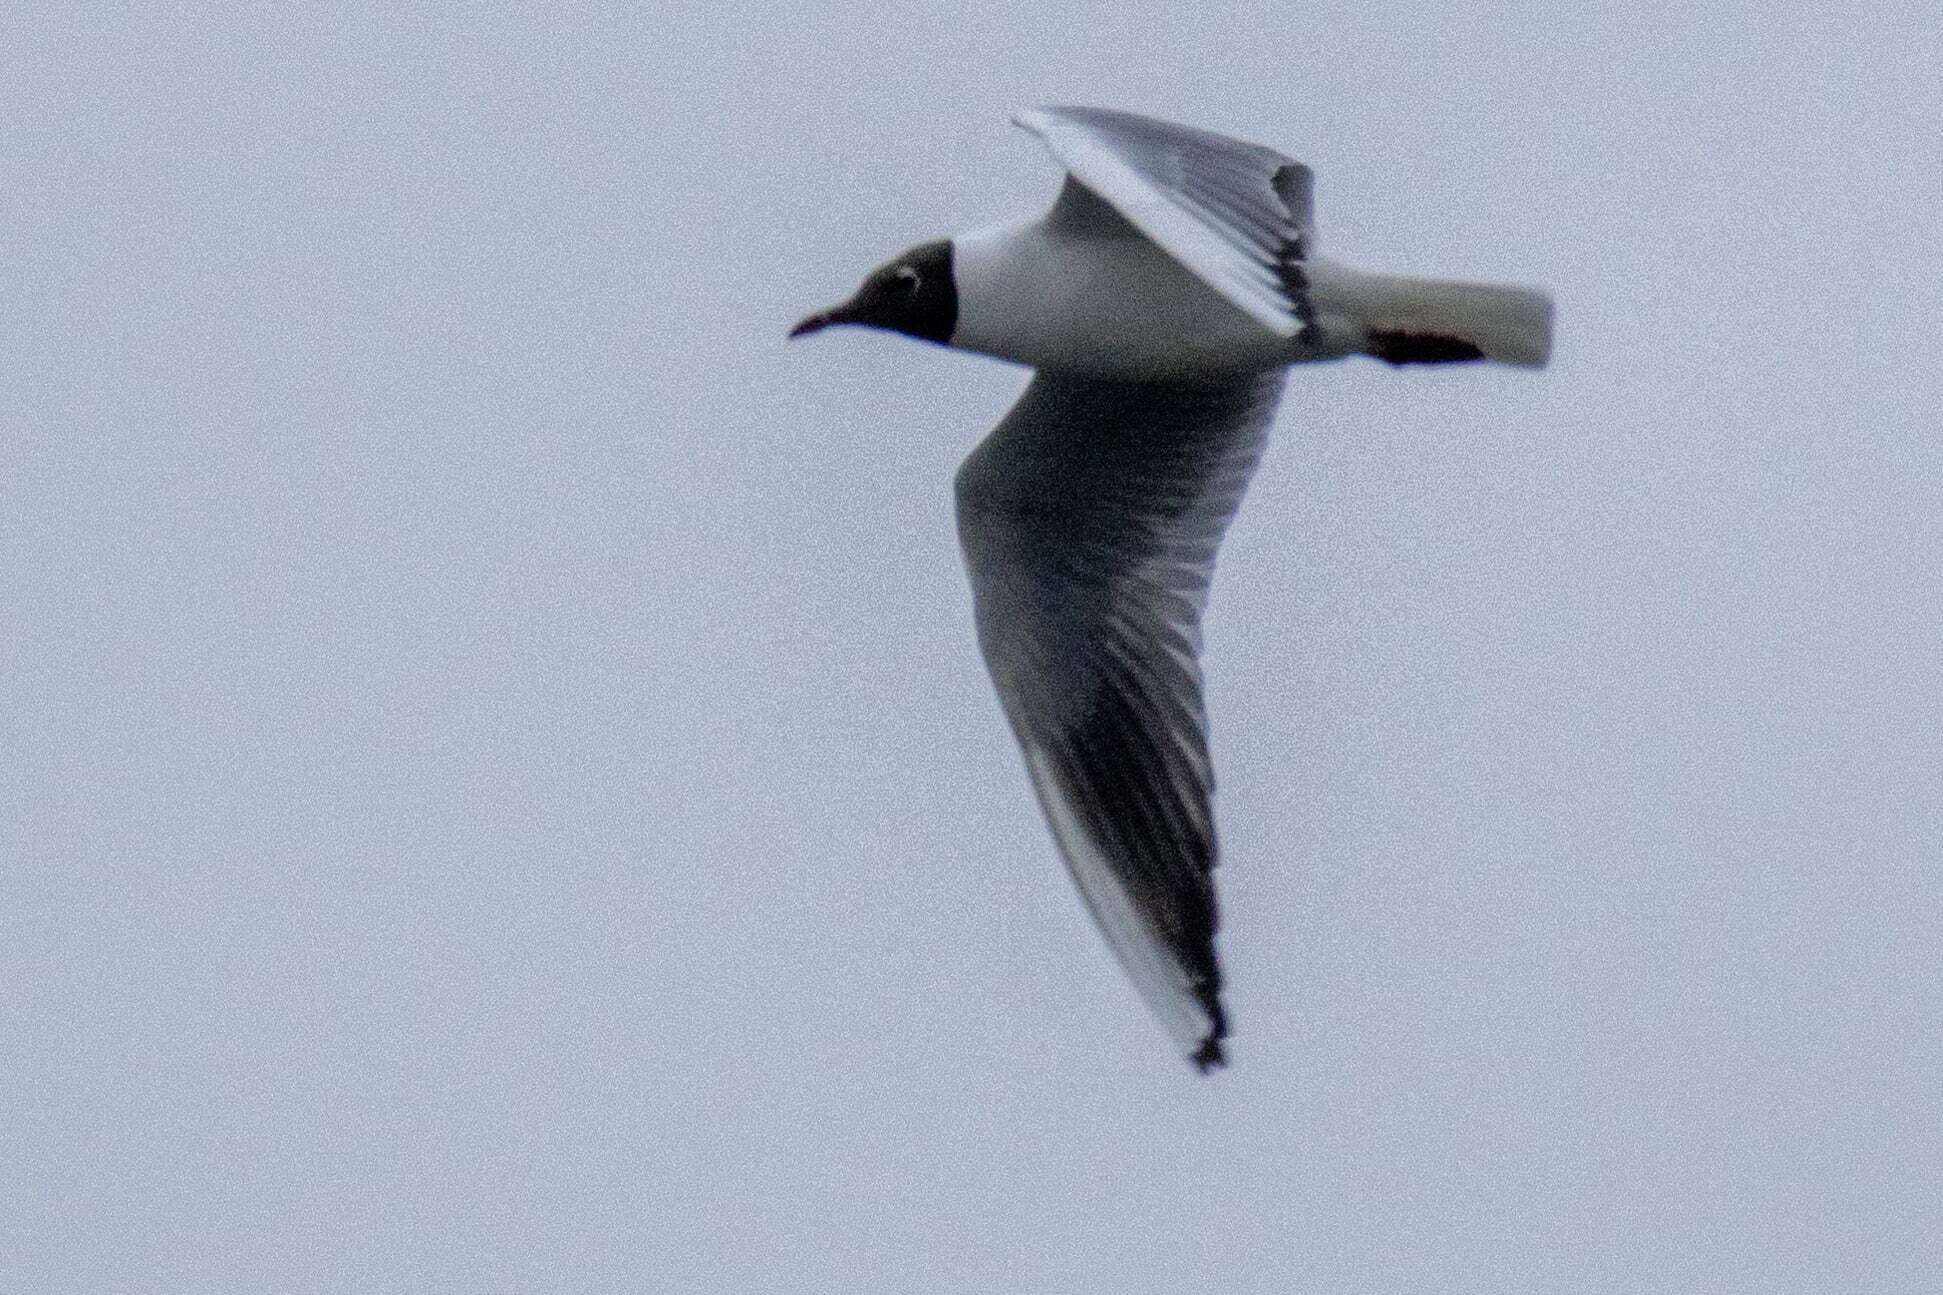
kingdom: Animalia
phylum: Chordata
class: Aves
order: Charadriiformes
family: Laridae
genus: Chroicocephalus
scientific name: Chroicocephalus ridibundus
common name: Black-headed gull
